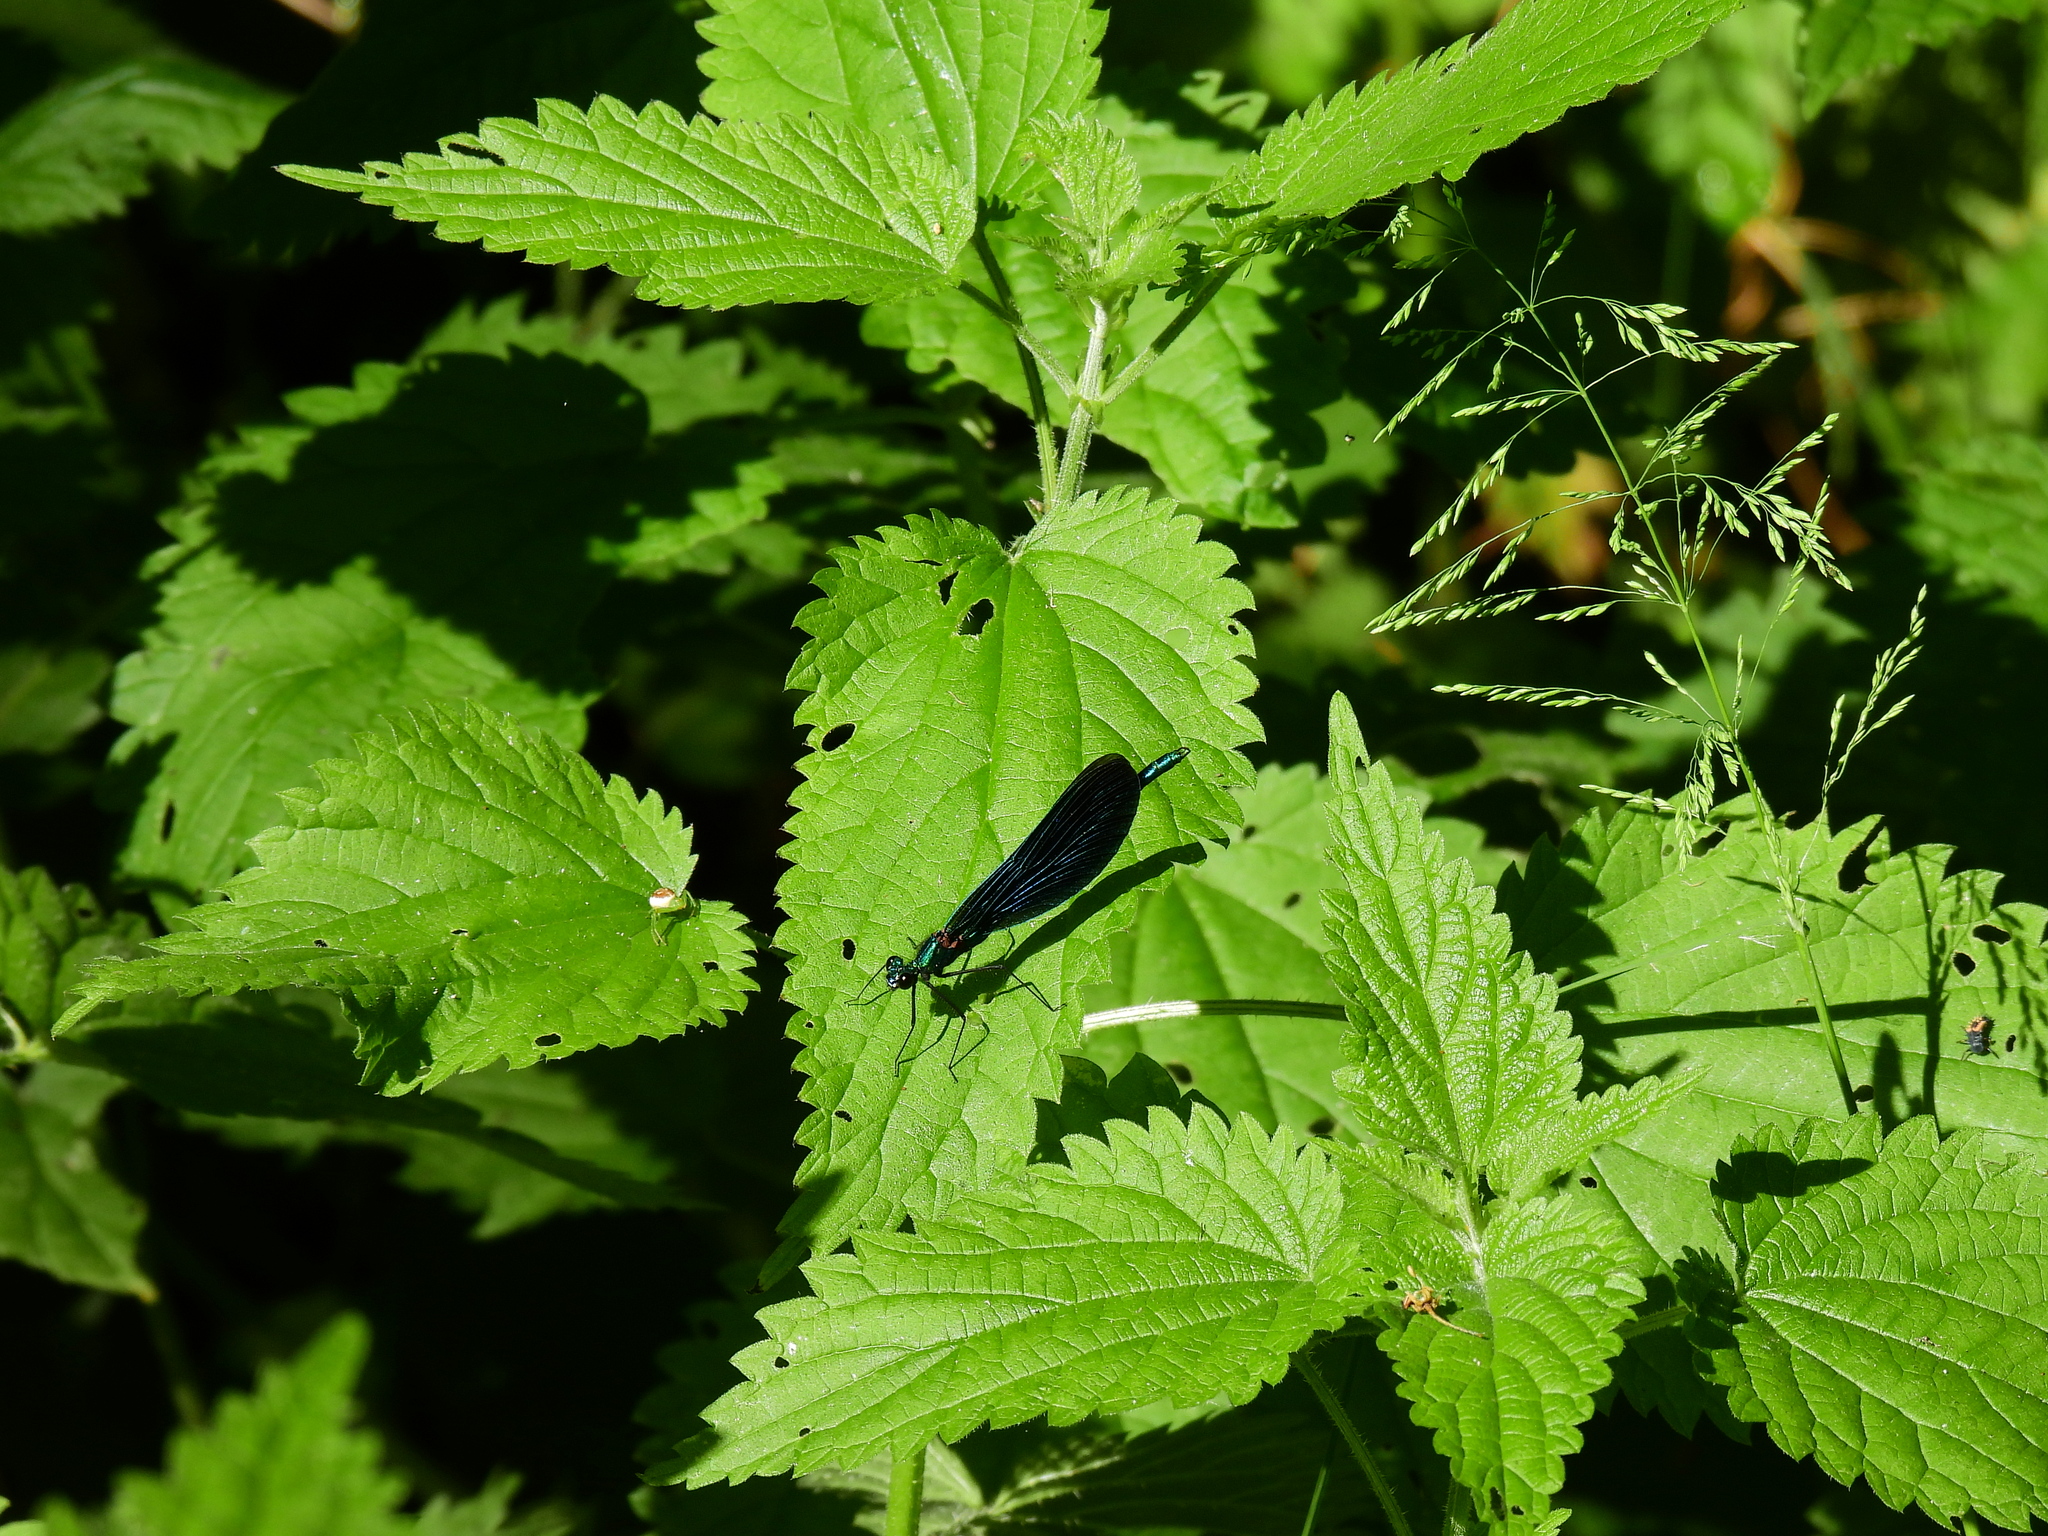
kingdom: Animalia
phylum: Arthropoda
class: Insecta
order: Odonata
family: Calopterygidae
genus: Calopteryx
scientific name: Calopteryx splendens
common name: Banded demoiselle
